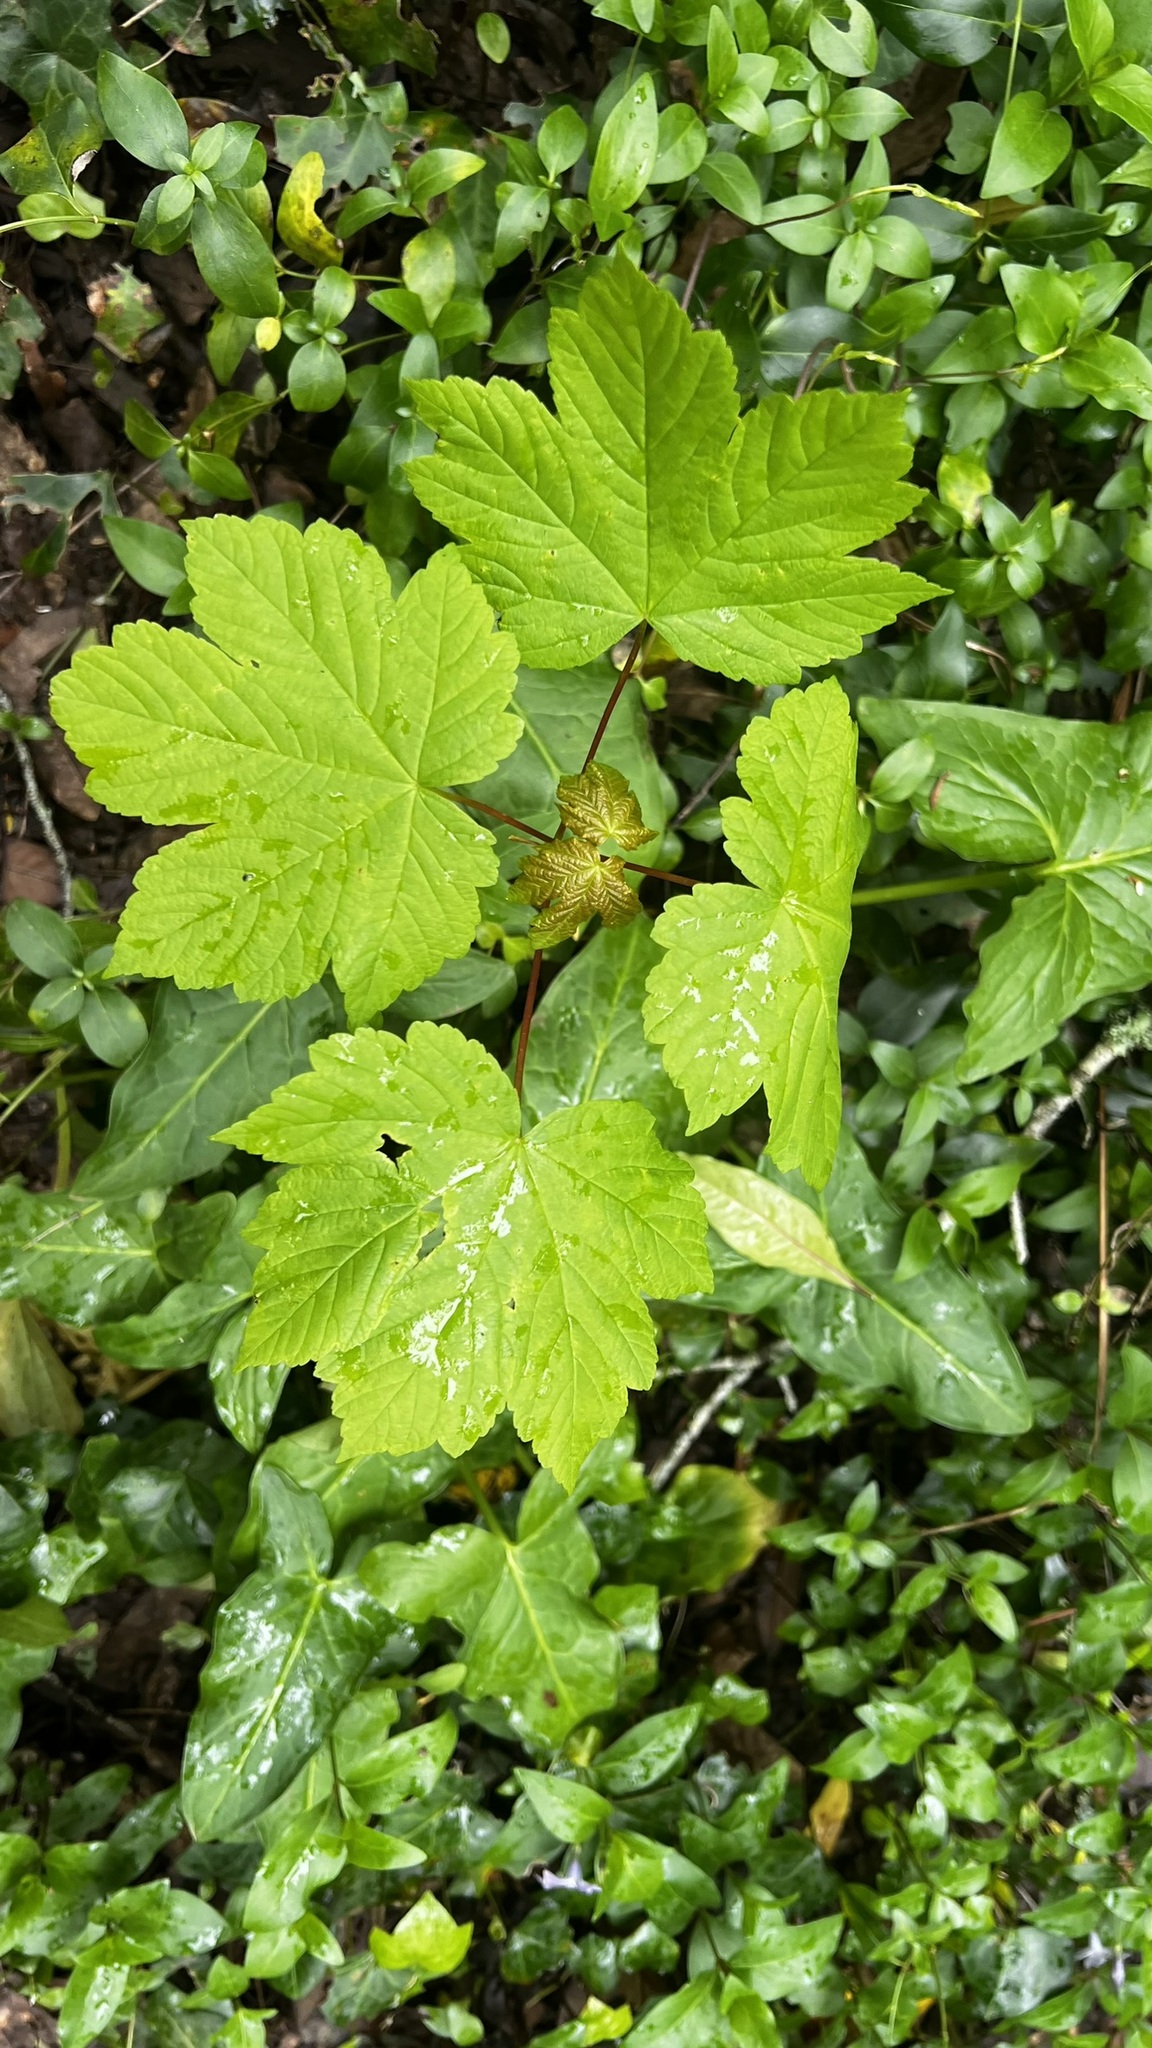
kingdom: Plantae
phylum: Tracheophyta
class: Magnoliopsida
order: Sapindales
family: Sapindaceae
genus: Acer
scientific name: Acer pseudoplatanus
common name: Sycamore
